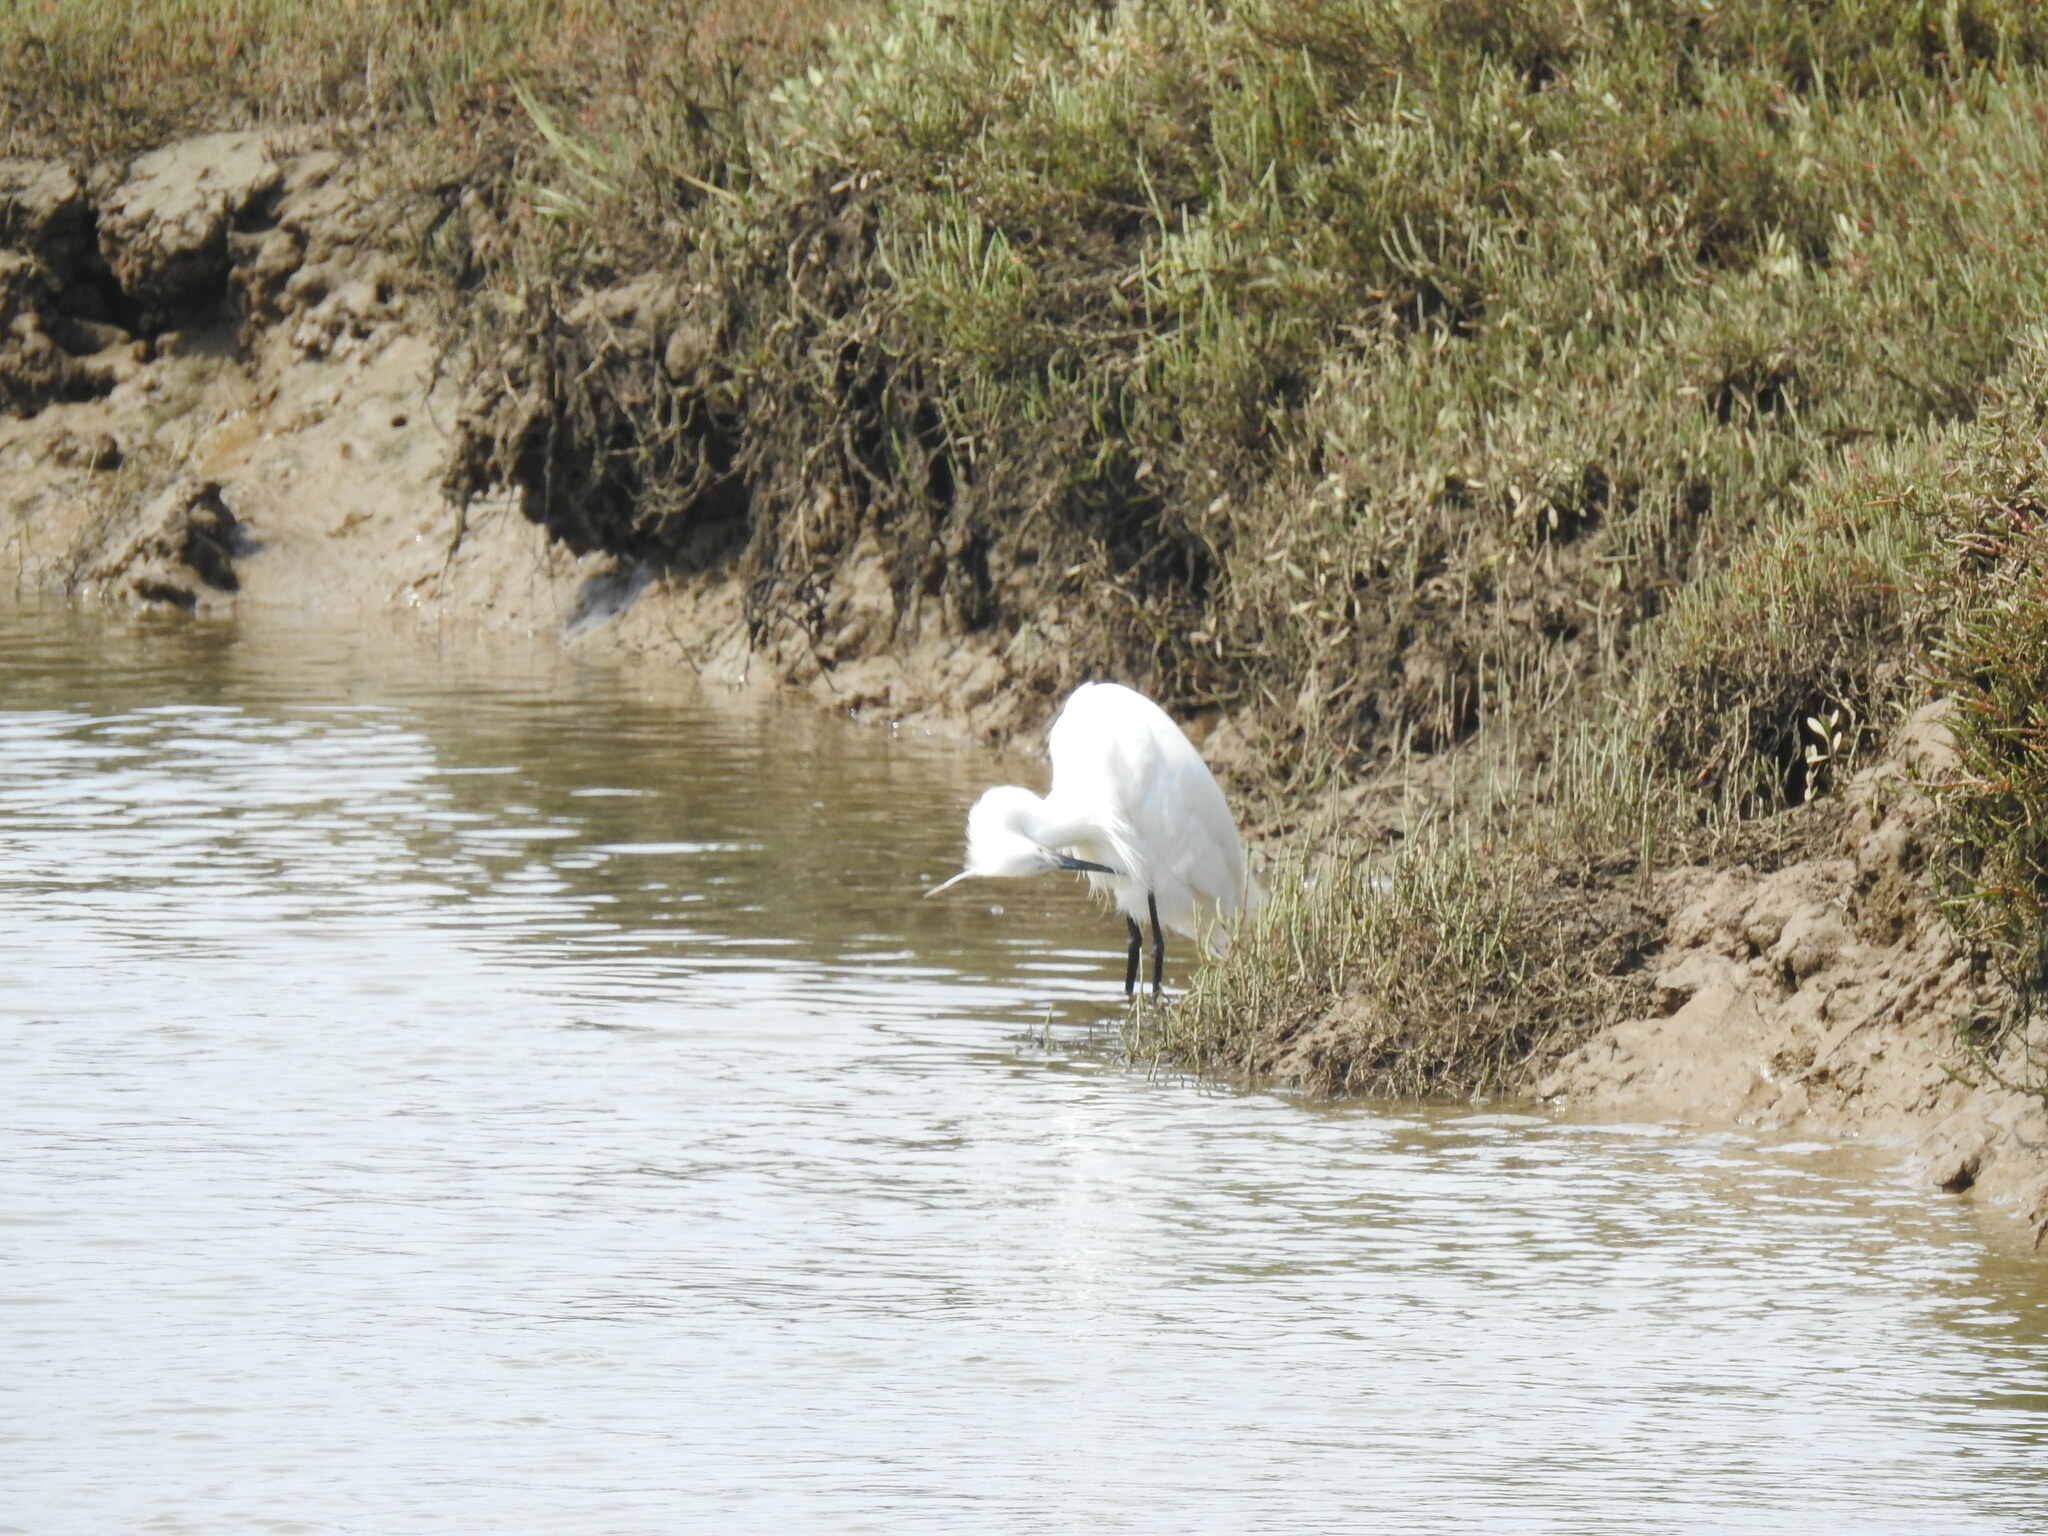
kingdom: Animalia
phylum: Chordata
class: Aves
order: Pelecaniformes
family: Ardeidae
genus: Egretta
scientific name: Egretta garzetta
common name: Little egret
